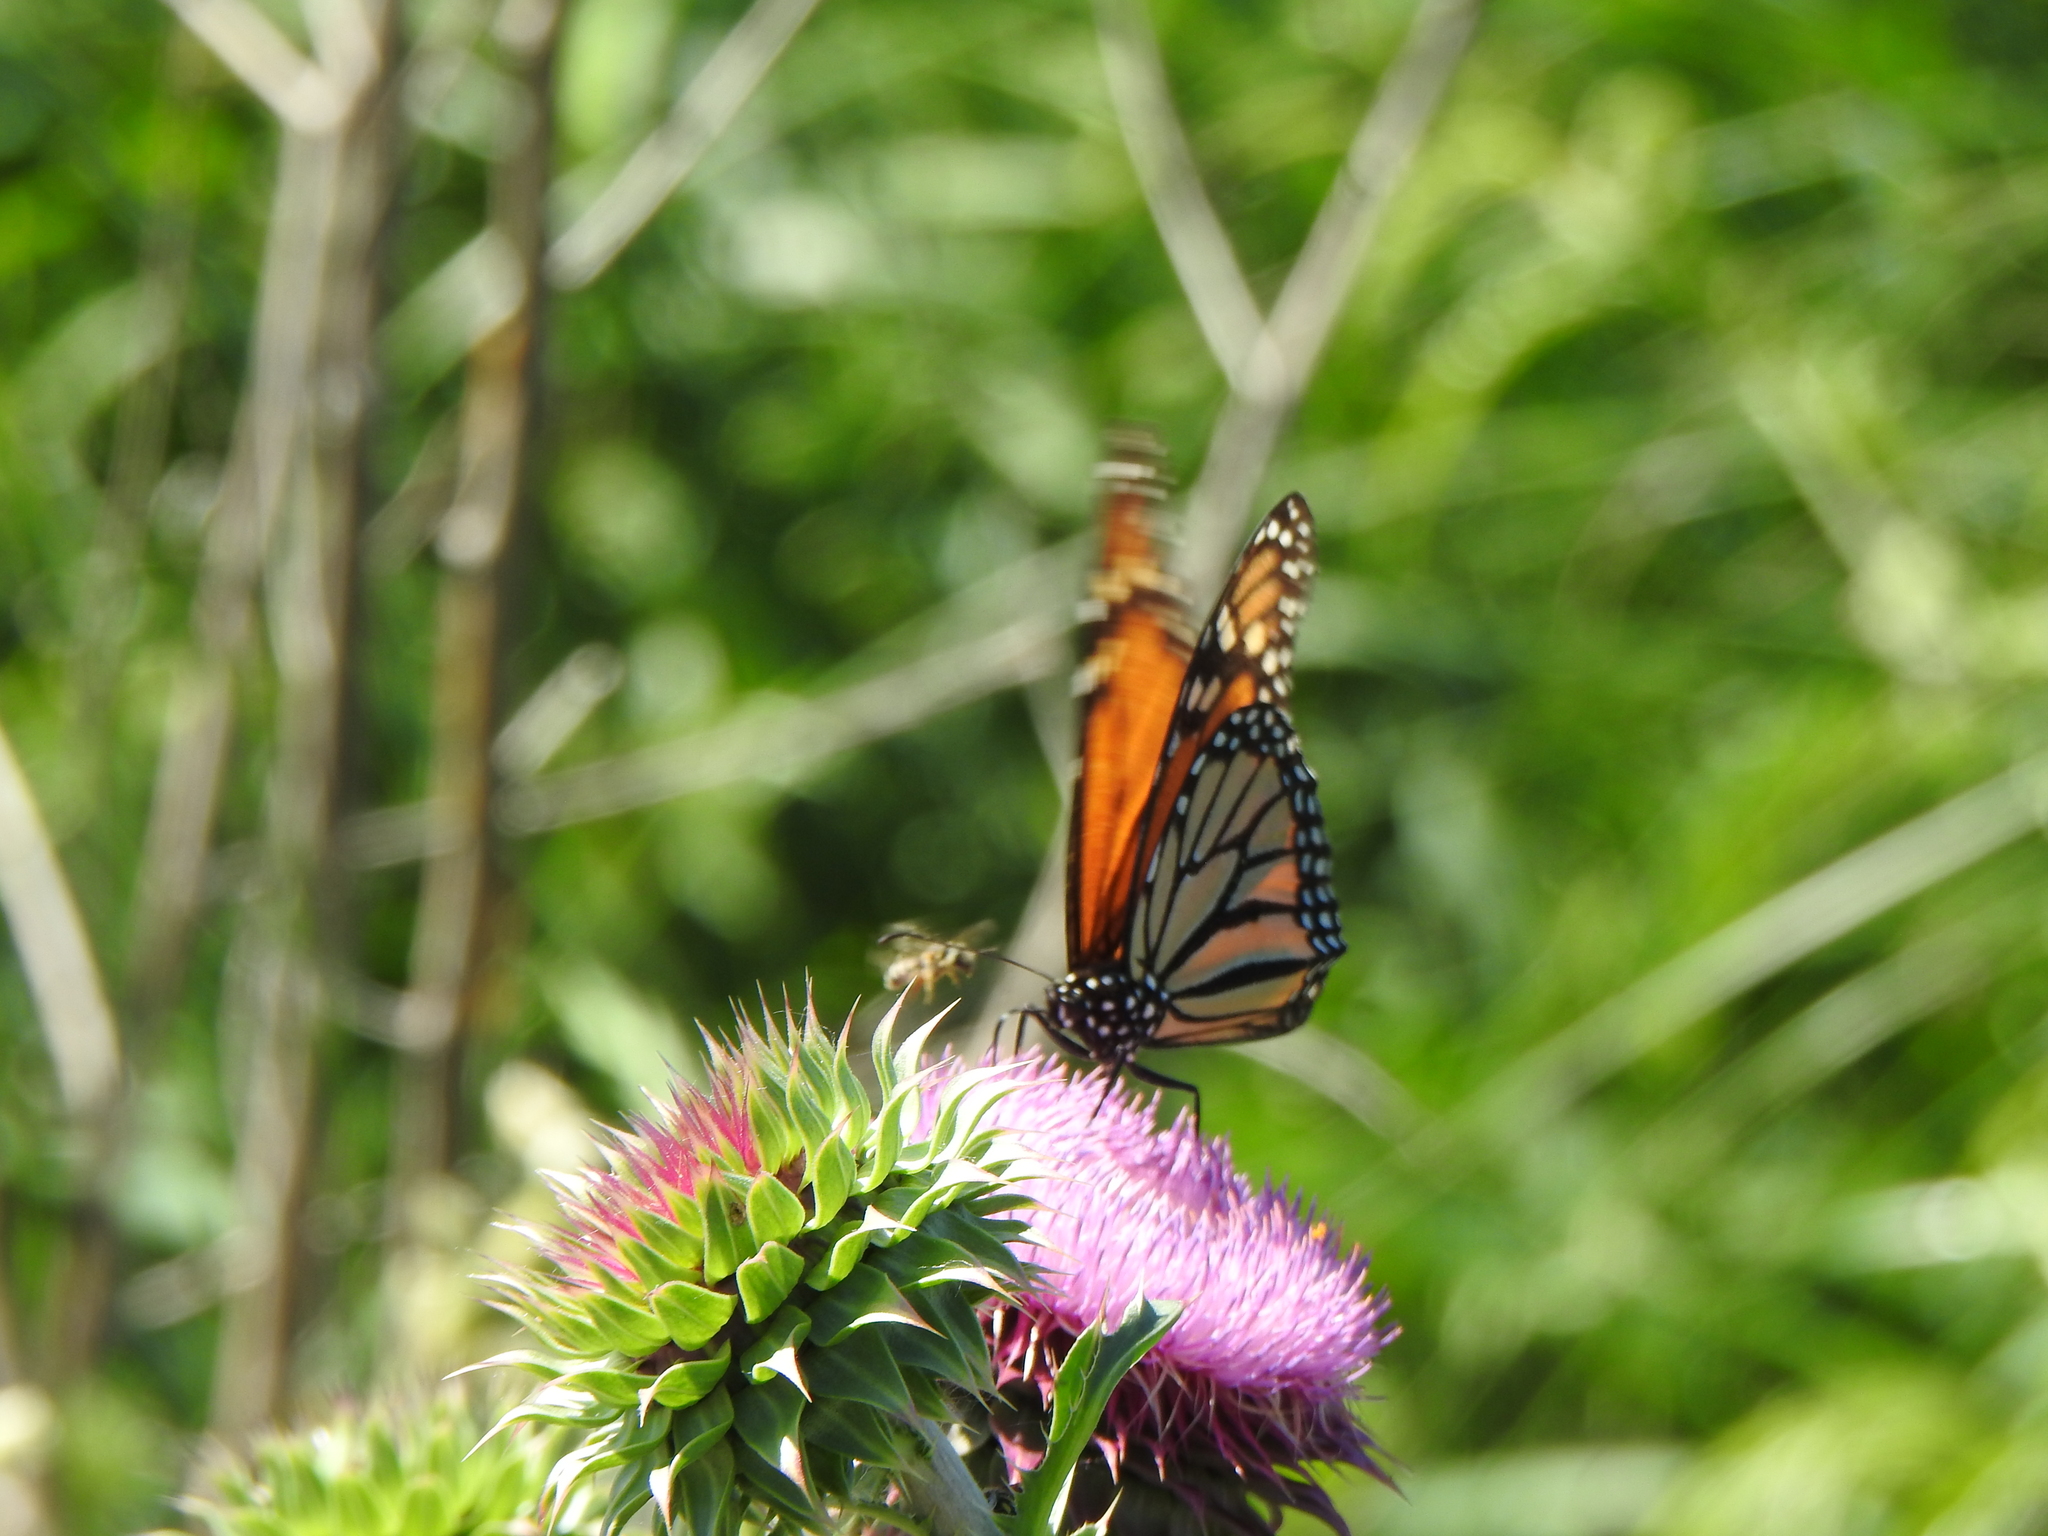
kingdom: Animalia
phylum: Arthropoda
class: Insecta
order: Lepidoptera
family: Nymphalidae
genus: Danaus
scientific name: Danaus plexippus
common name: Monarch
